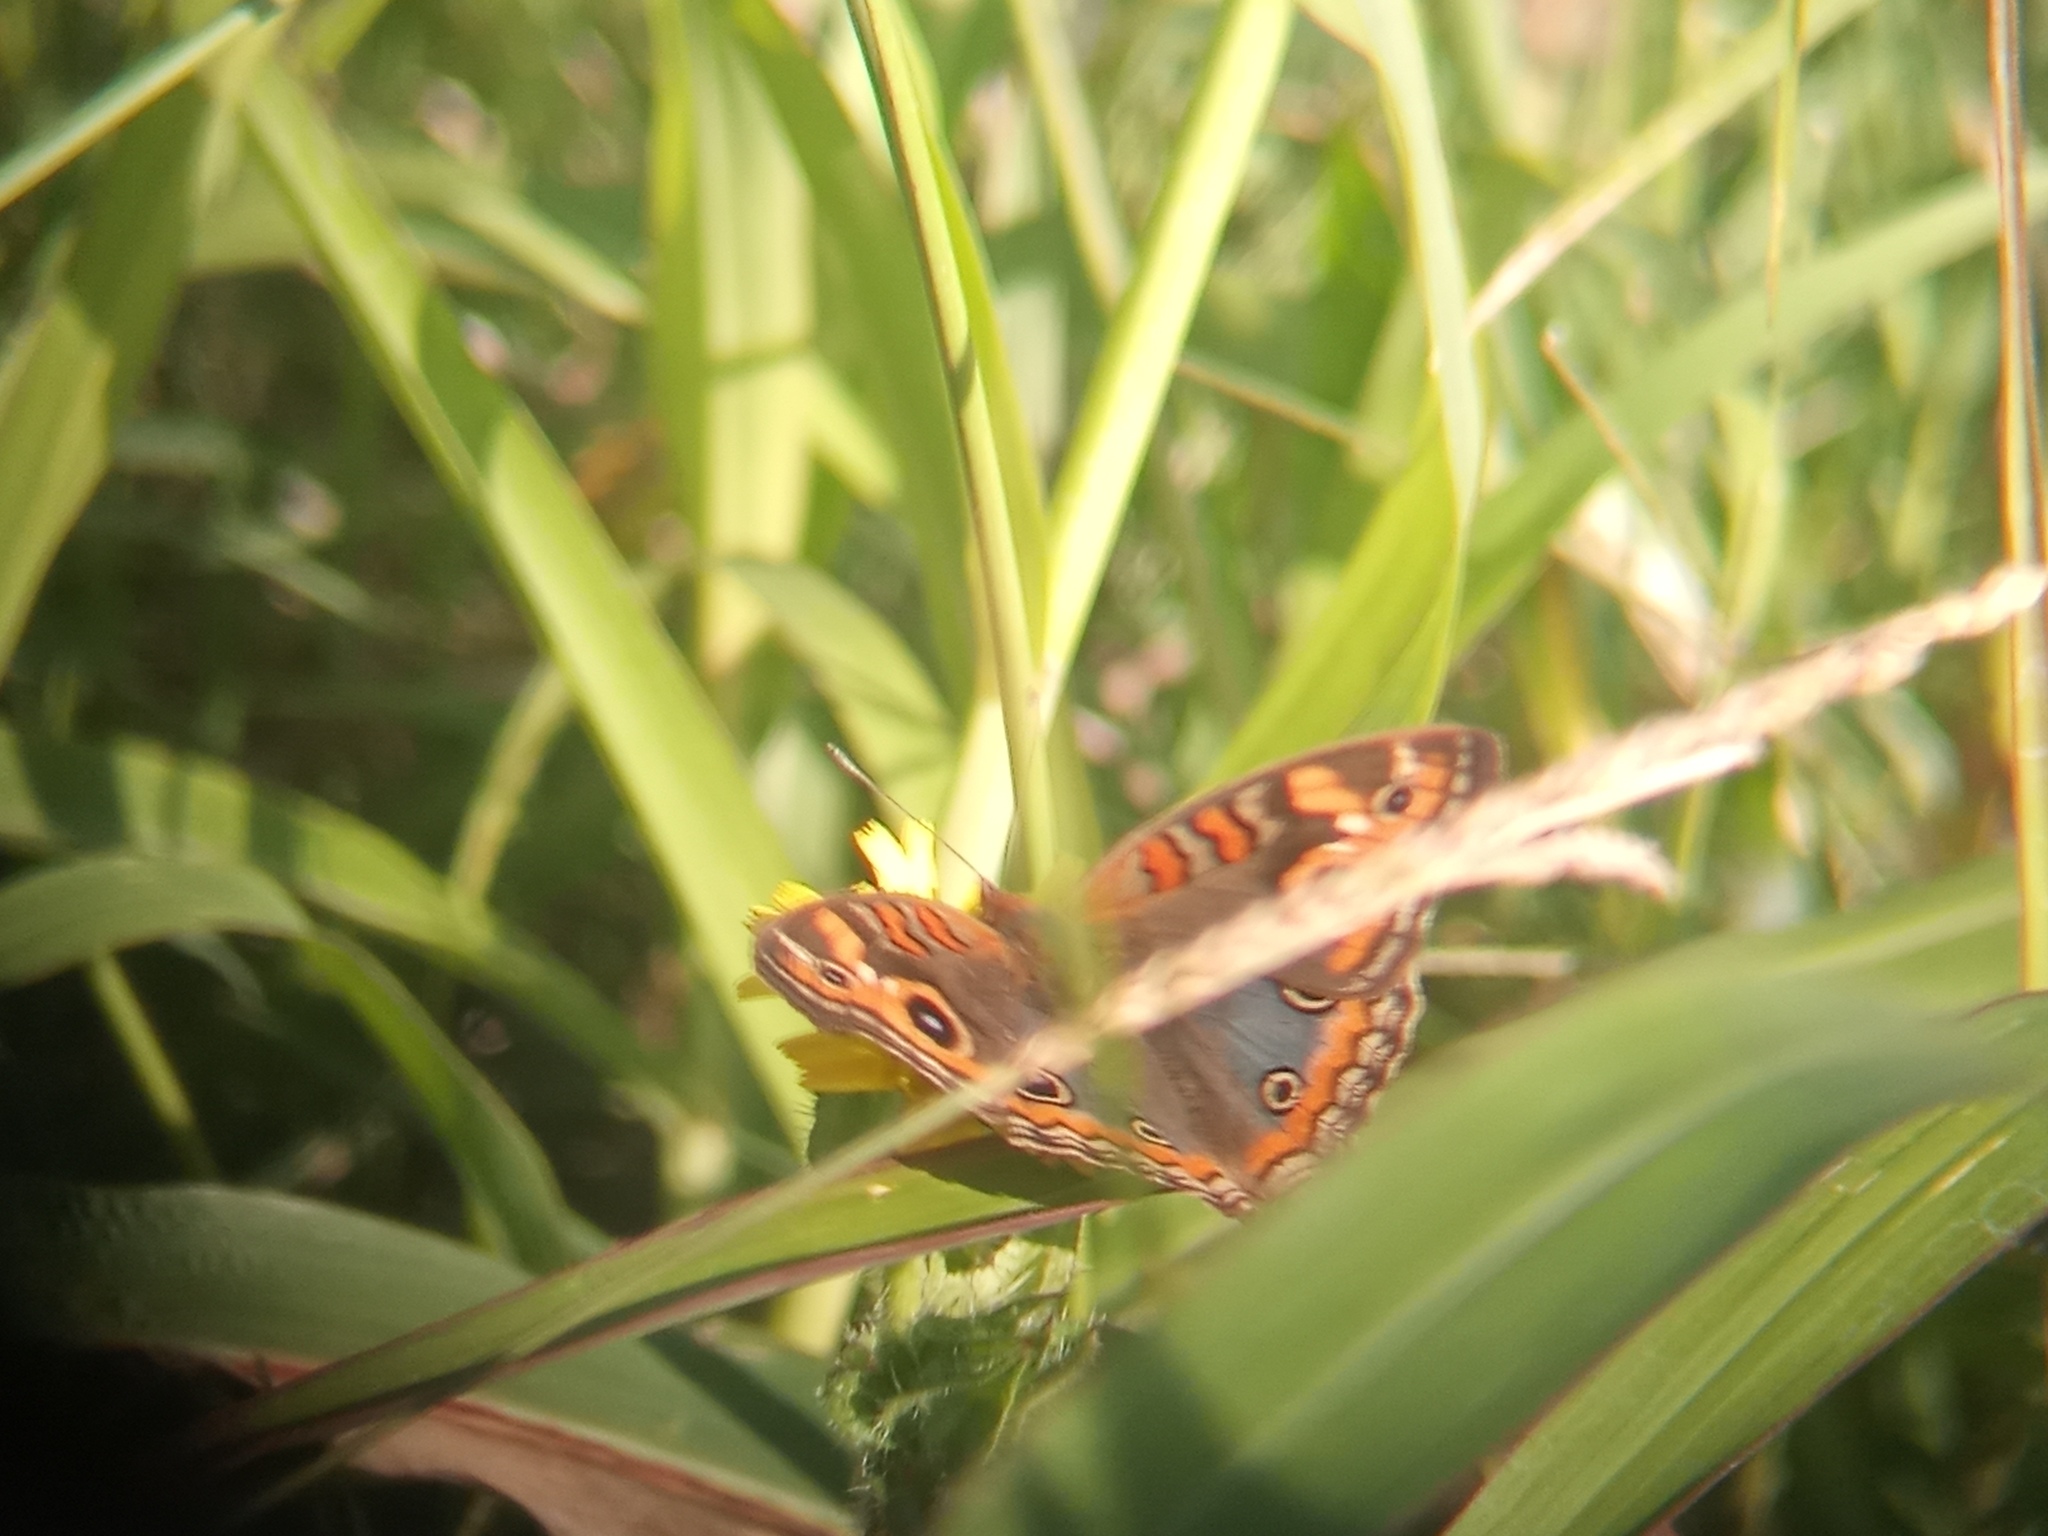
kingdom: Animalia
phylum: Arthropoda
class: Insecta
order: Lepidoptera
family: Nymphalidae
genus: Junonia
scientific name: Junonia lavinia
